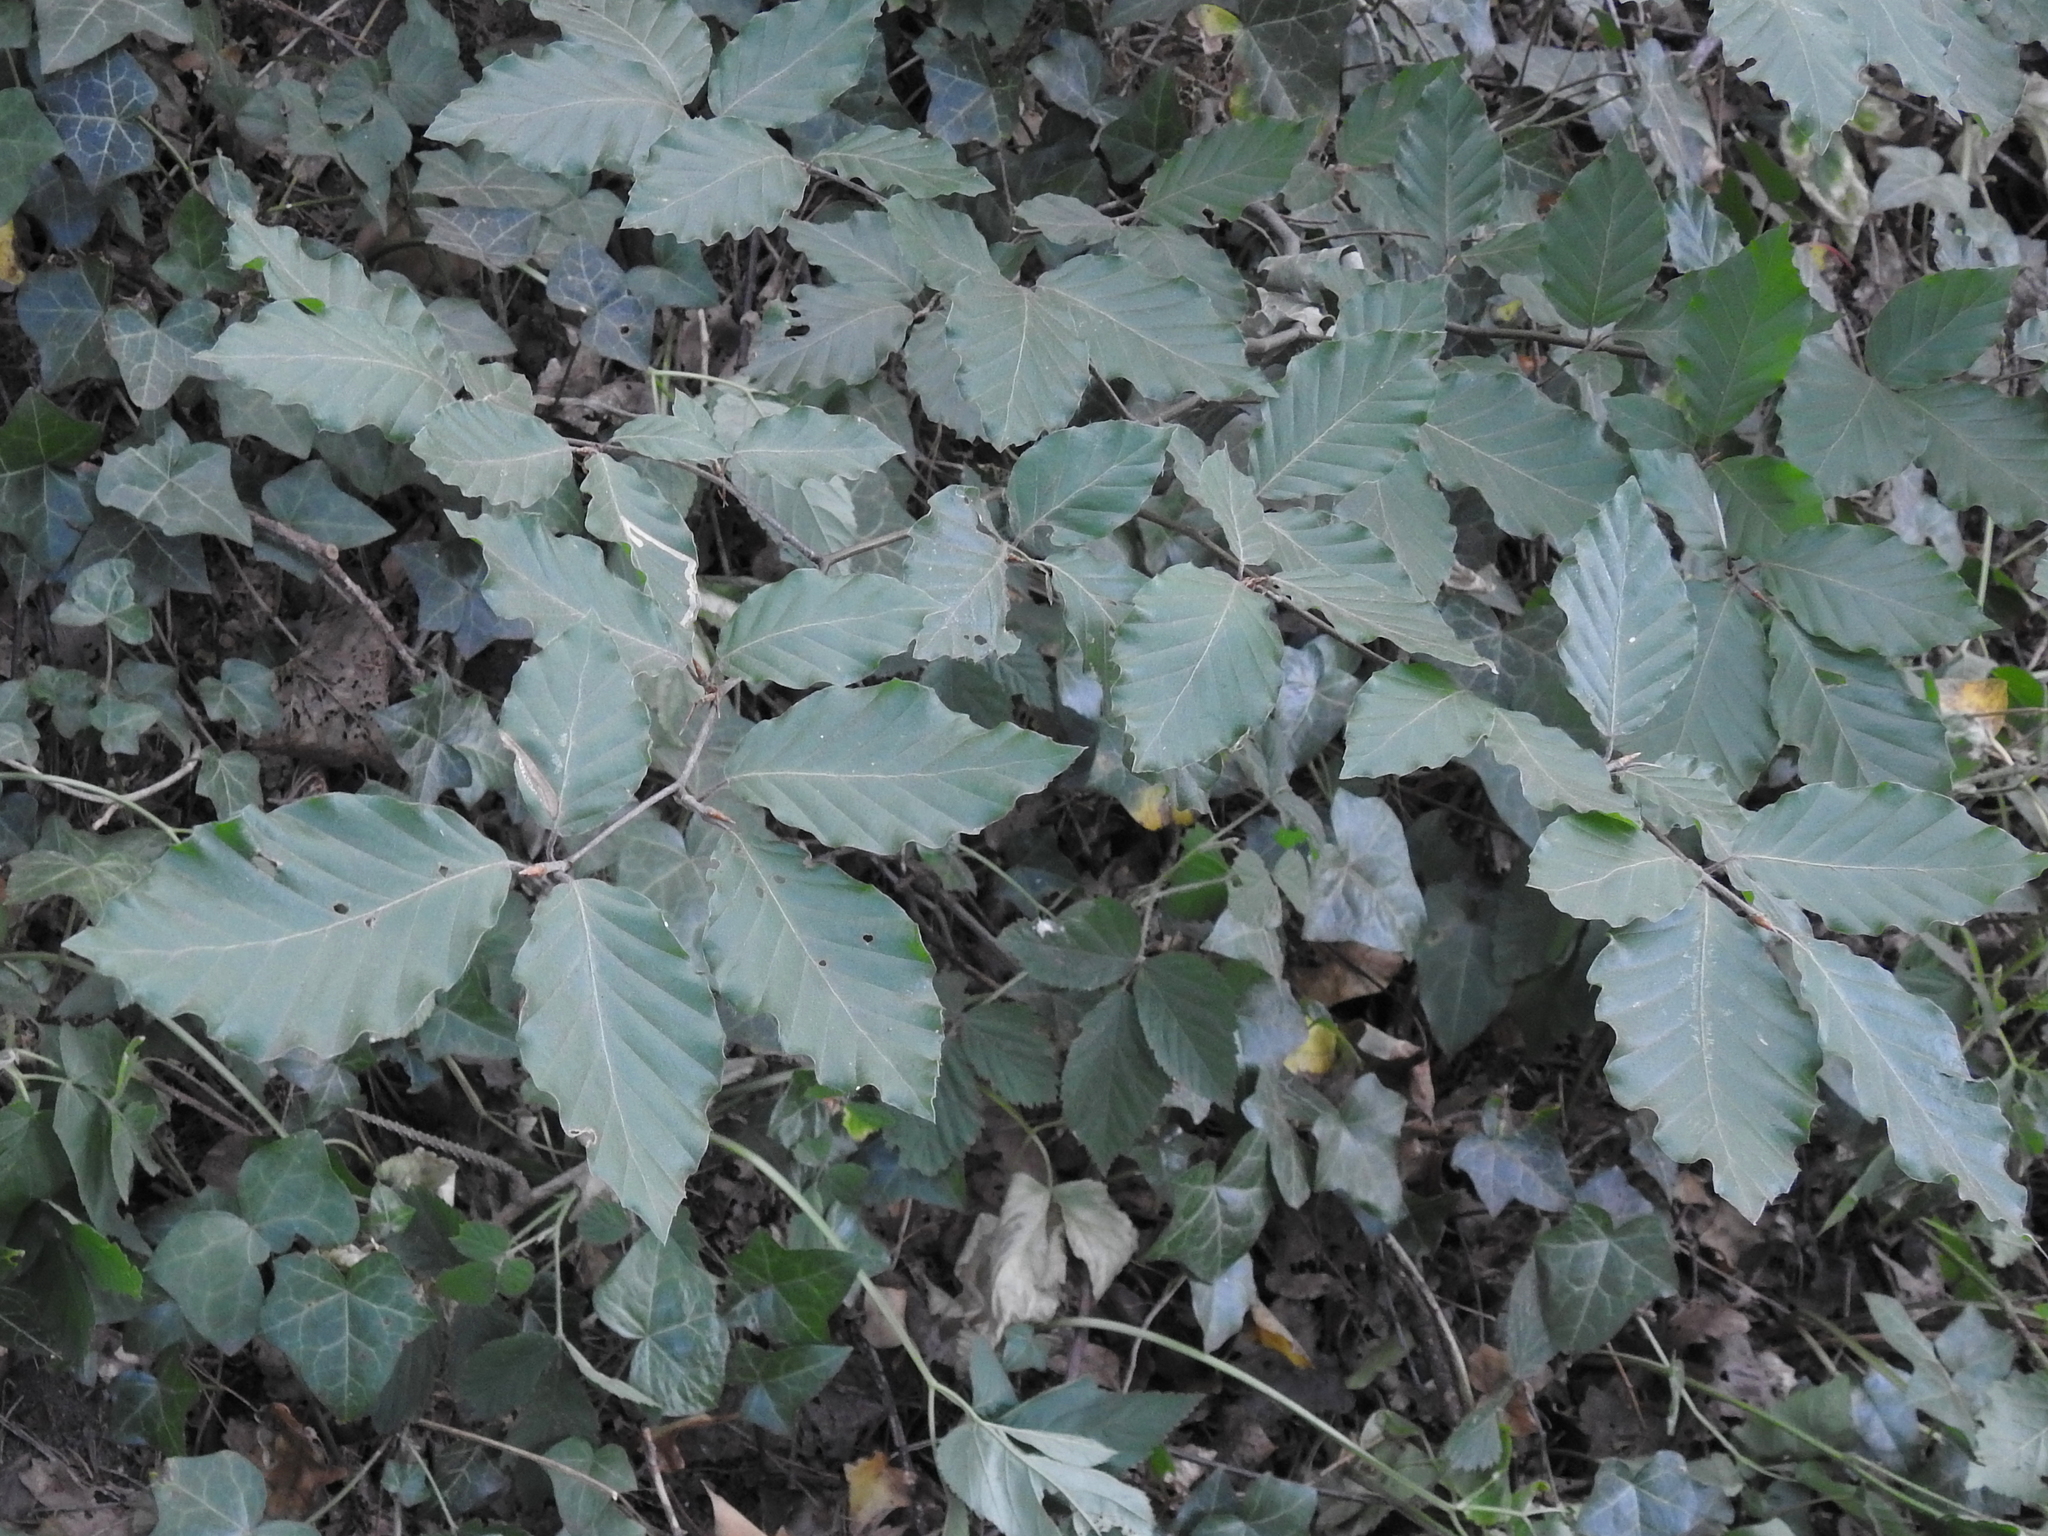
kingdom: Plantae
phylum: Tracheophyta
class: Magnoliopsida
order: Fagales
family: Fagaceae
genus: Fagus
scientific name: Fagus sylvatica
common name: Beech
